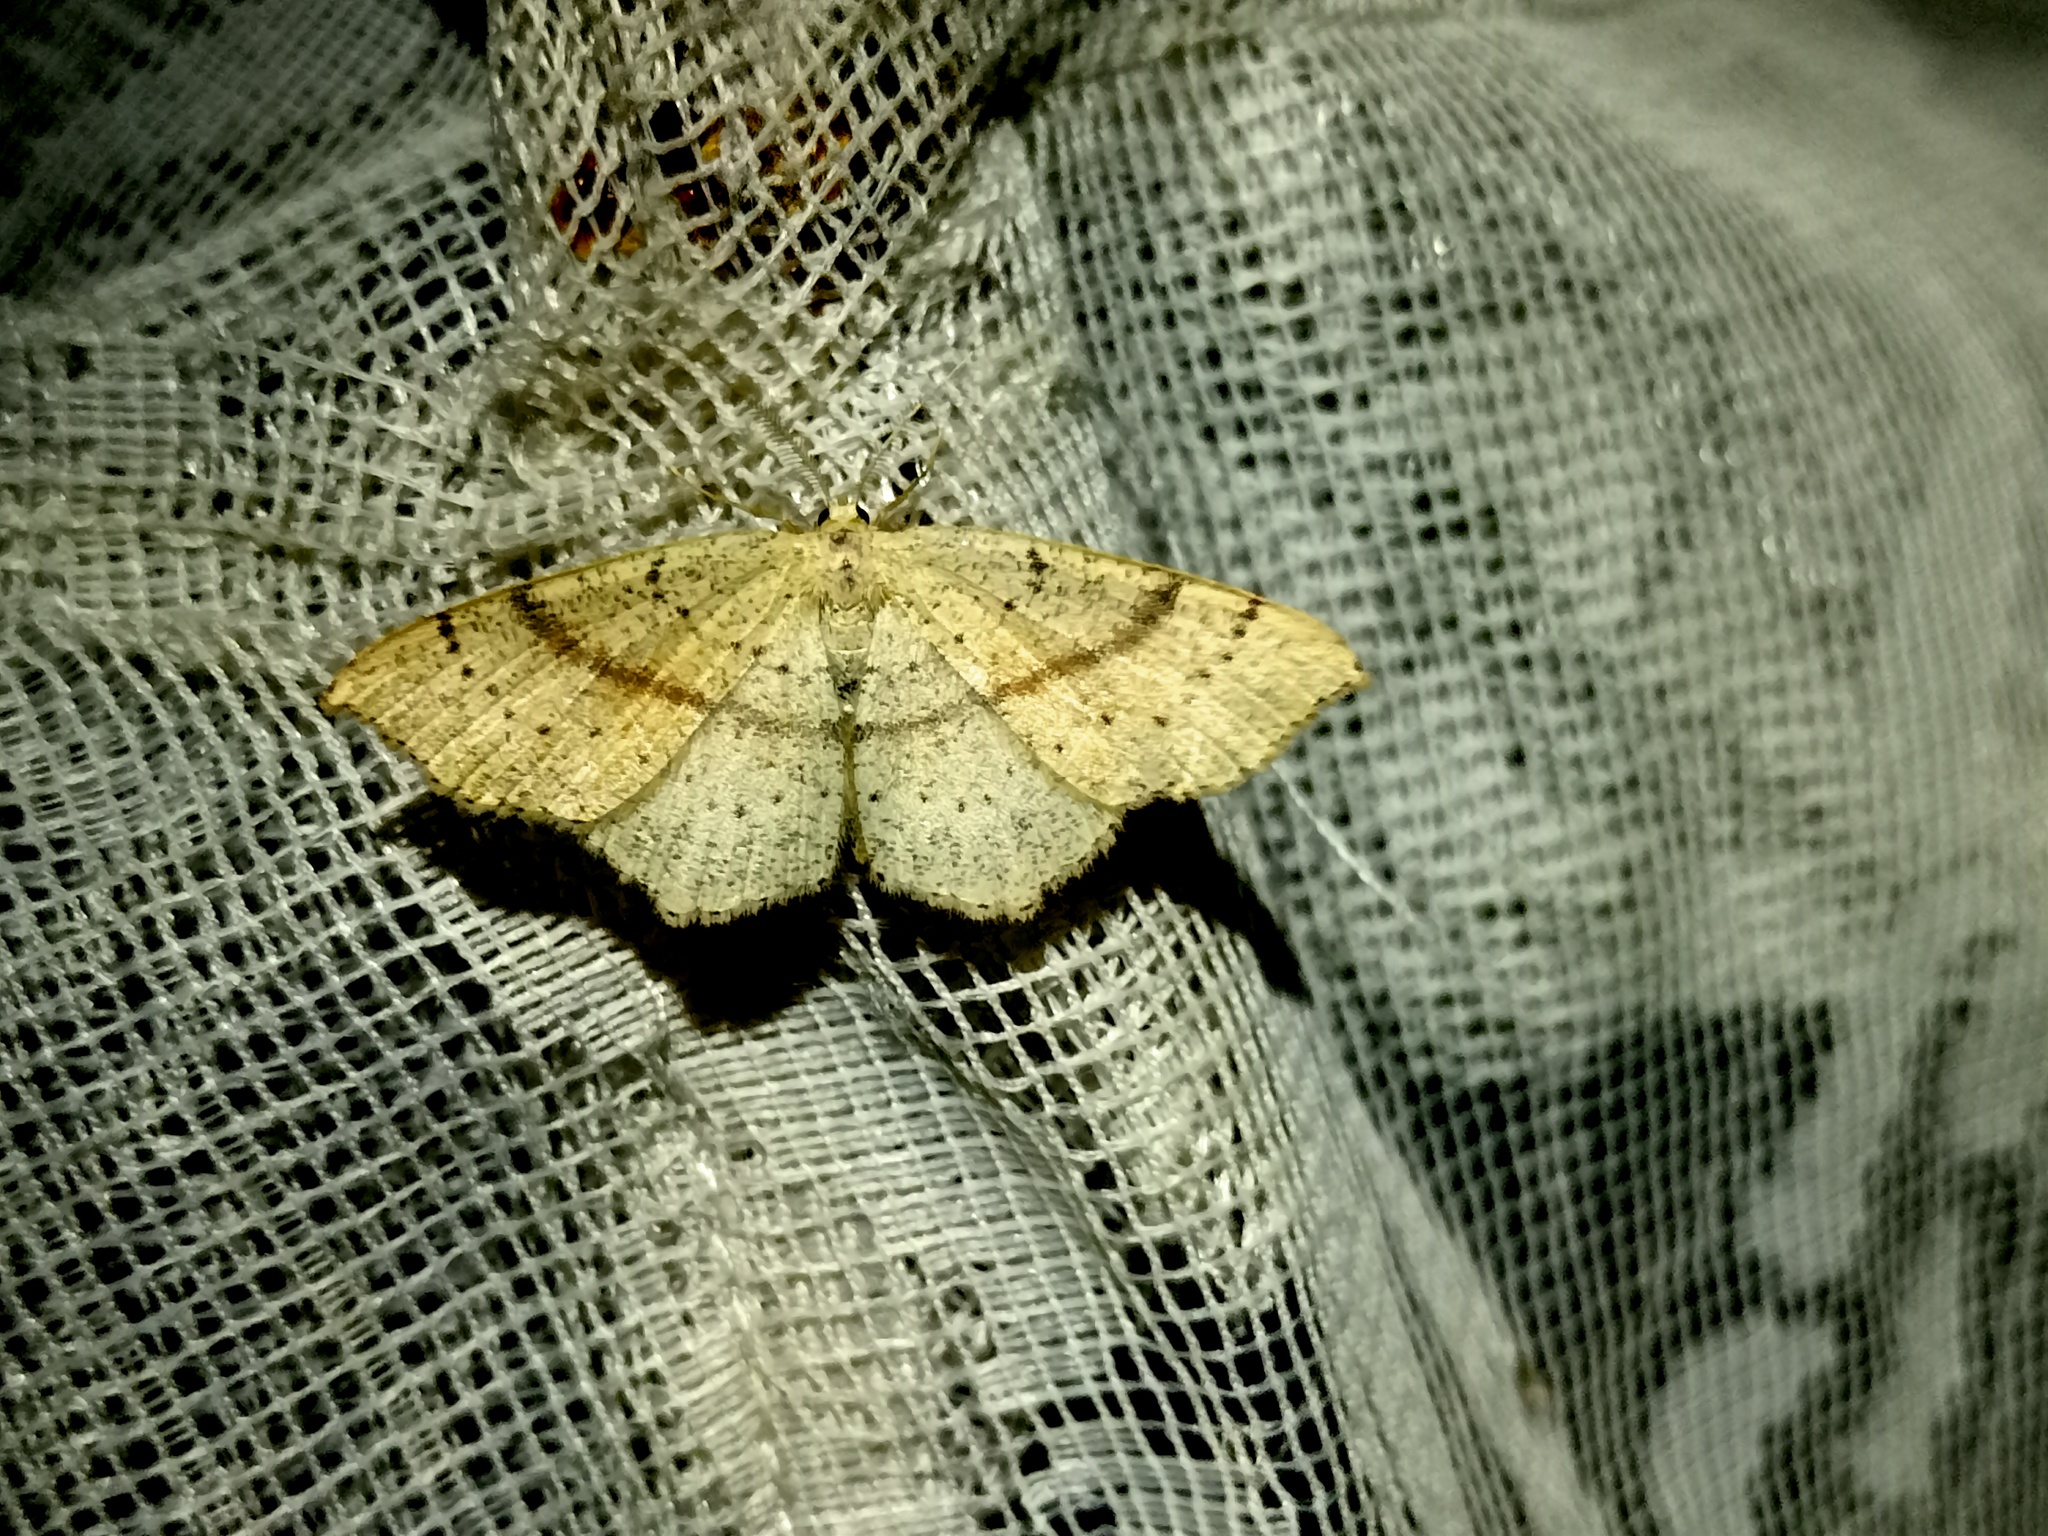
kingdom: Animalia
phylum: Arthropoda
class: Insecta
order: Lepidoptera
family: Geometridae
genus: Cyclophora
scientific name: Cyclophora punctaria
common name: Maiden's blush
